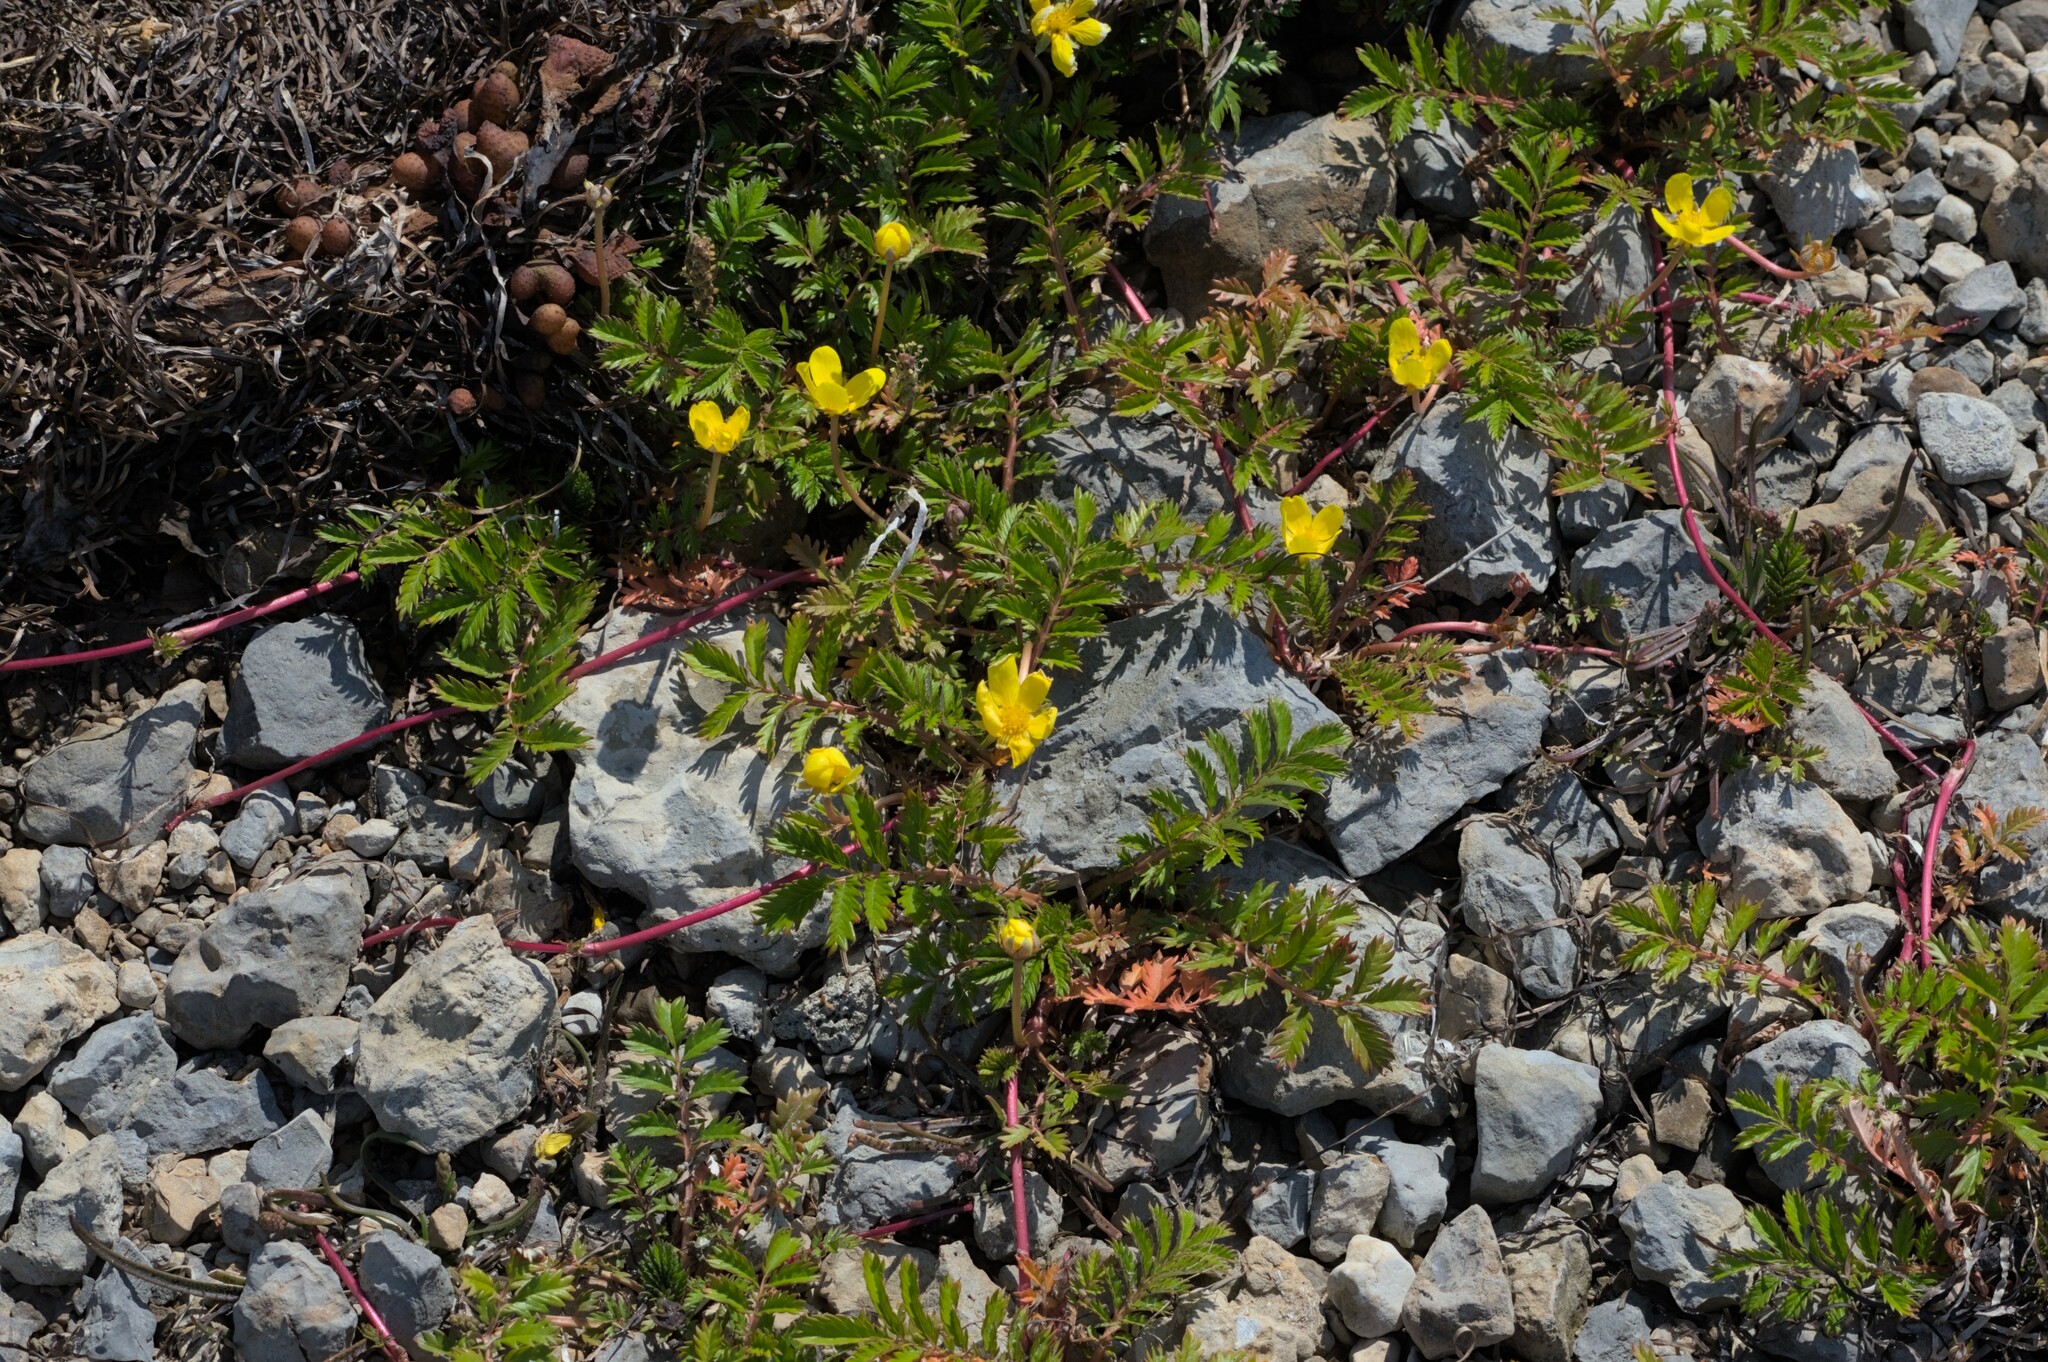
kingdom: Plantae
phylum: Tracheophyta
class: Magnoliopsida
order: Rosales
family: Rosaceae
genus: Argentina
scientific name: Argentina anserina
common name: Common silverweed
